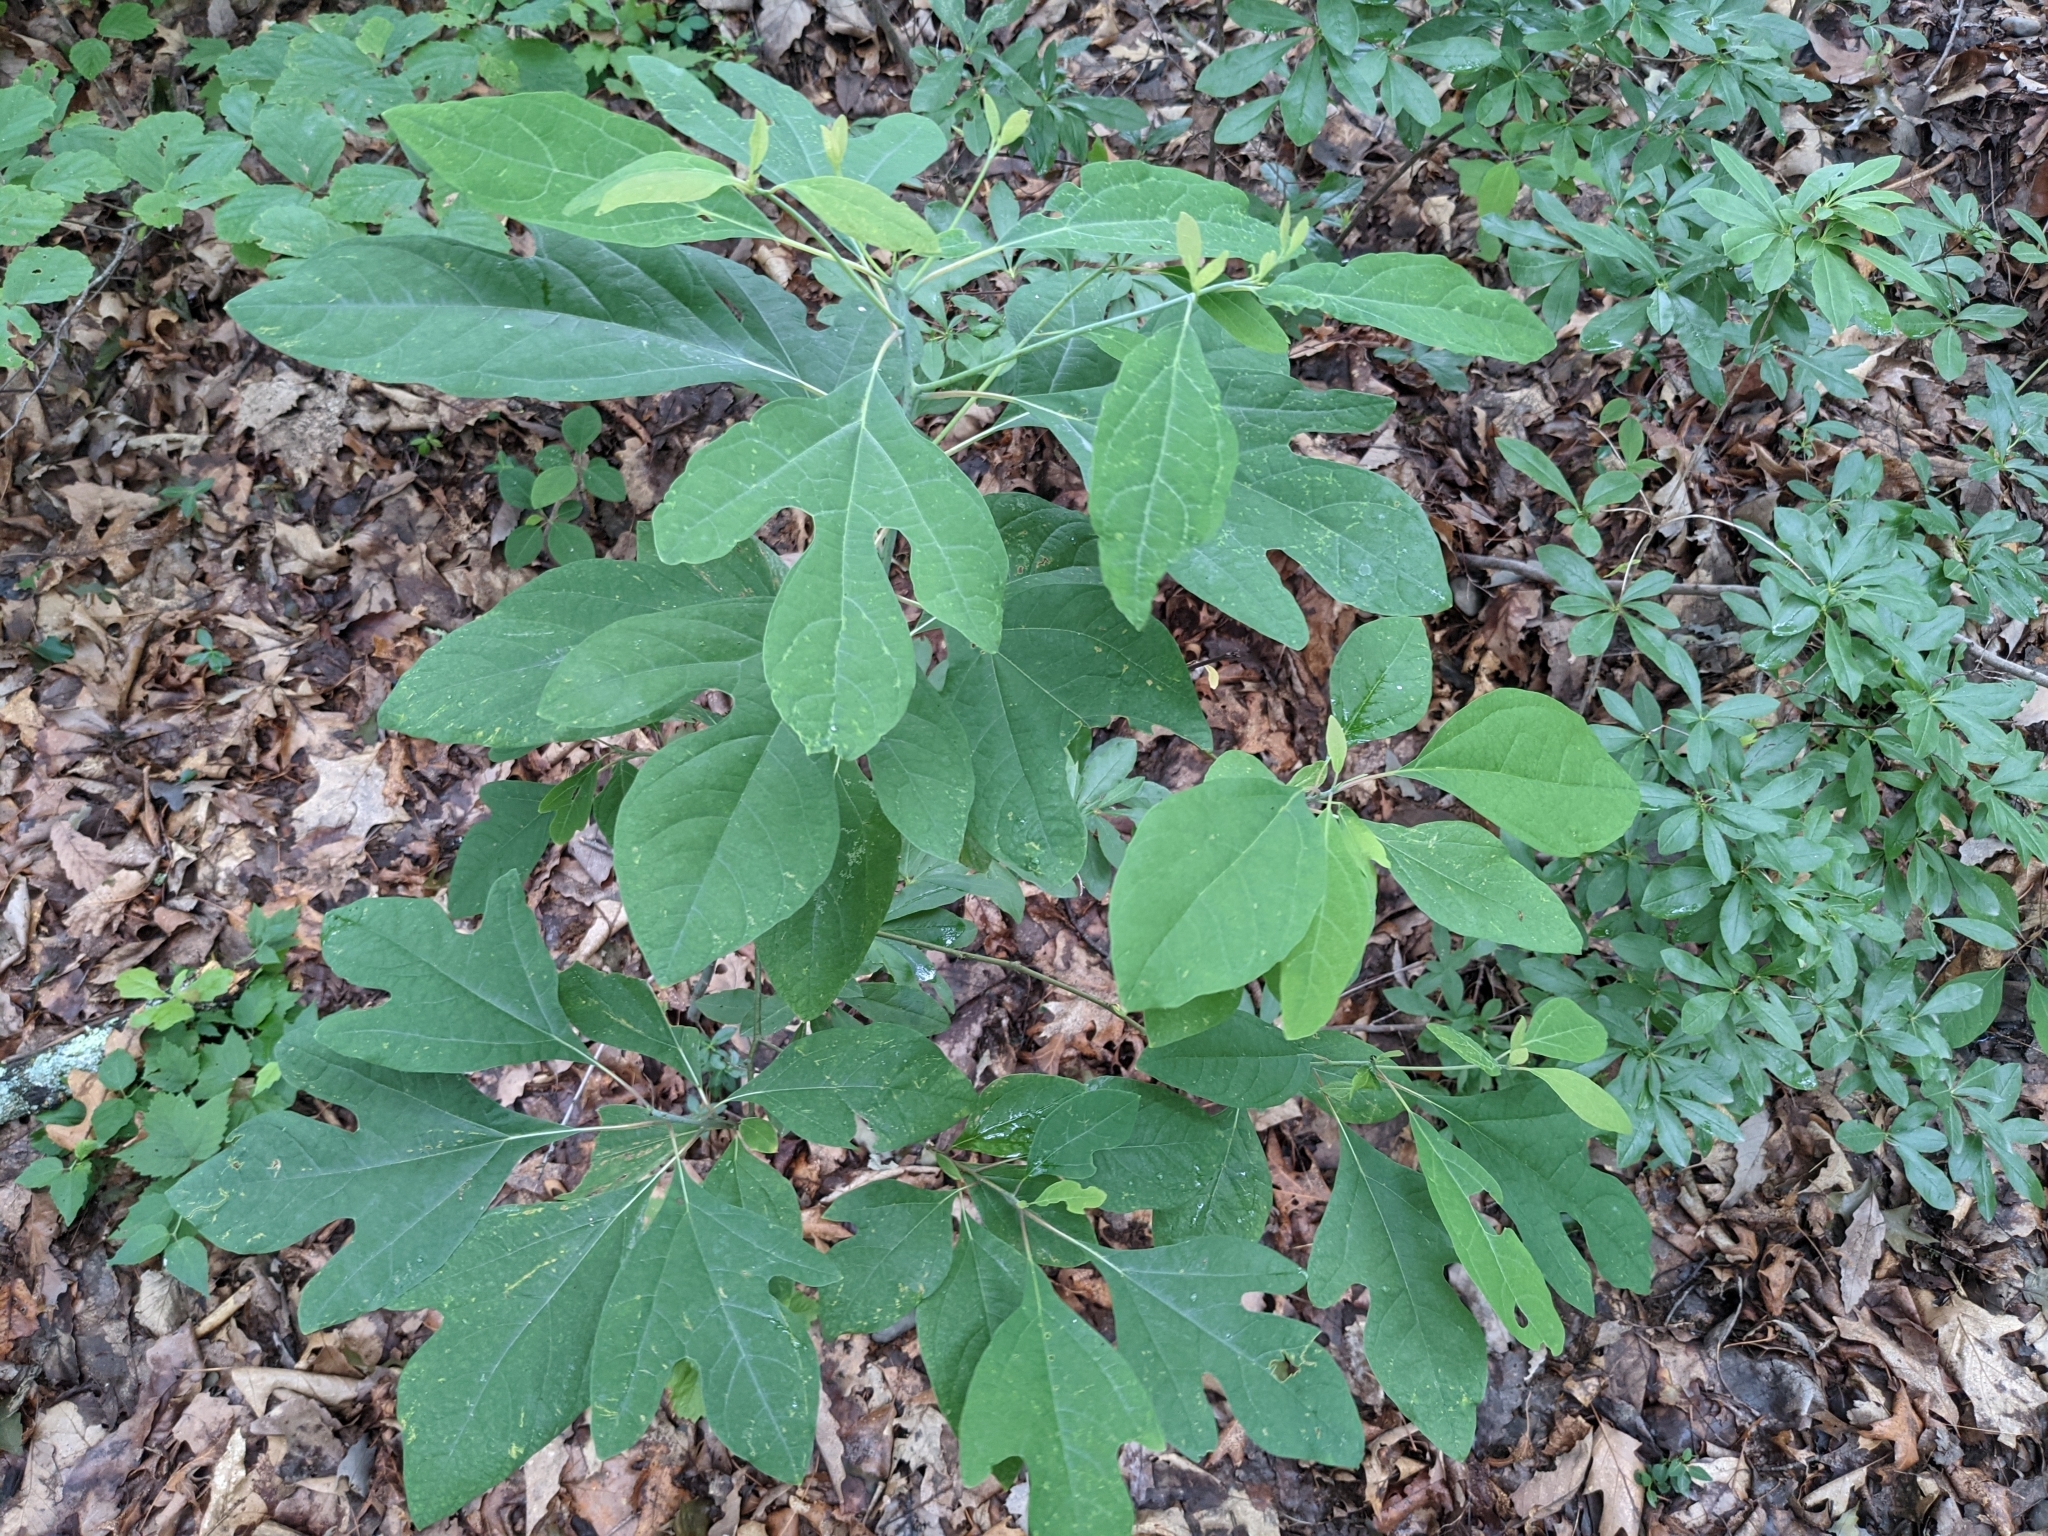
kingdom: Plantae
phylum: Tracheophyta
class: Magnoliopsida
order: Laurales
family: Lauraceae
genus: Sassafras
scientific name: Sassafras albidum
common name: Sassafras
